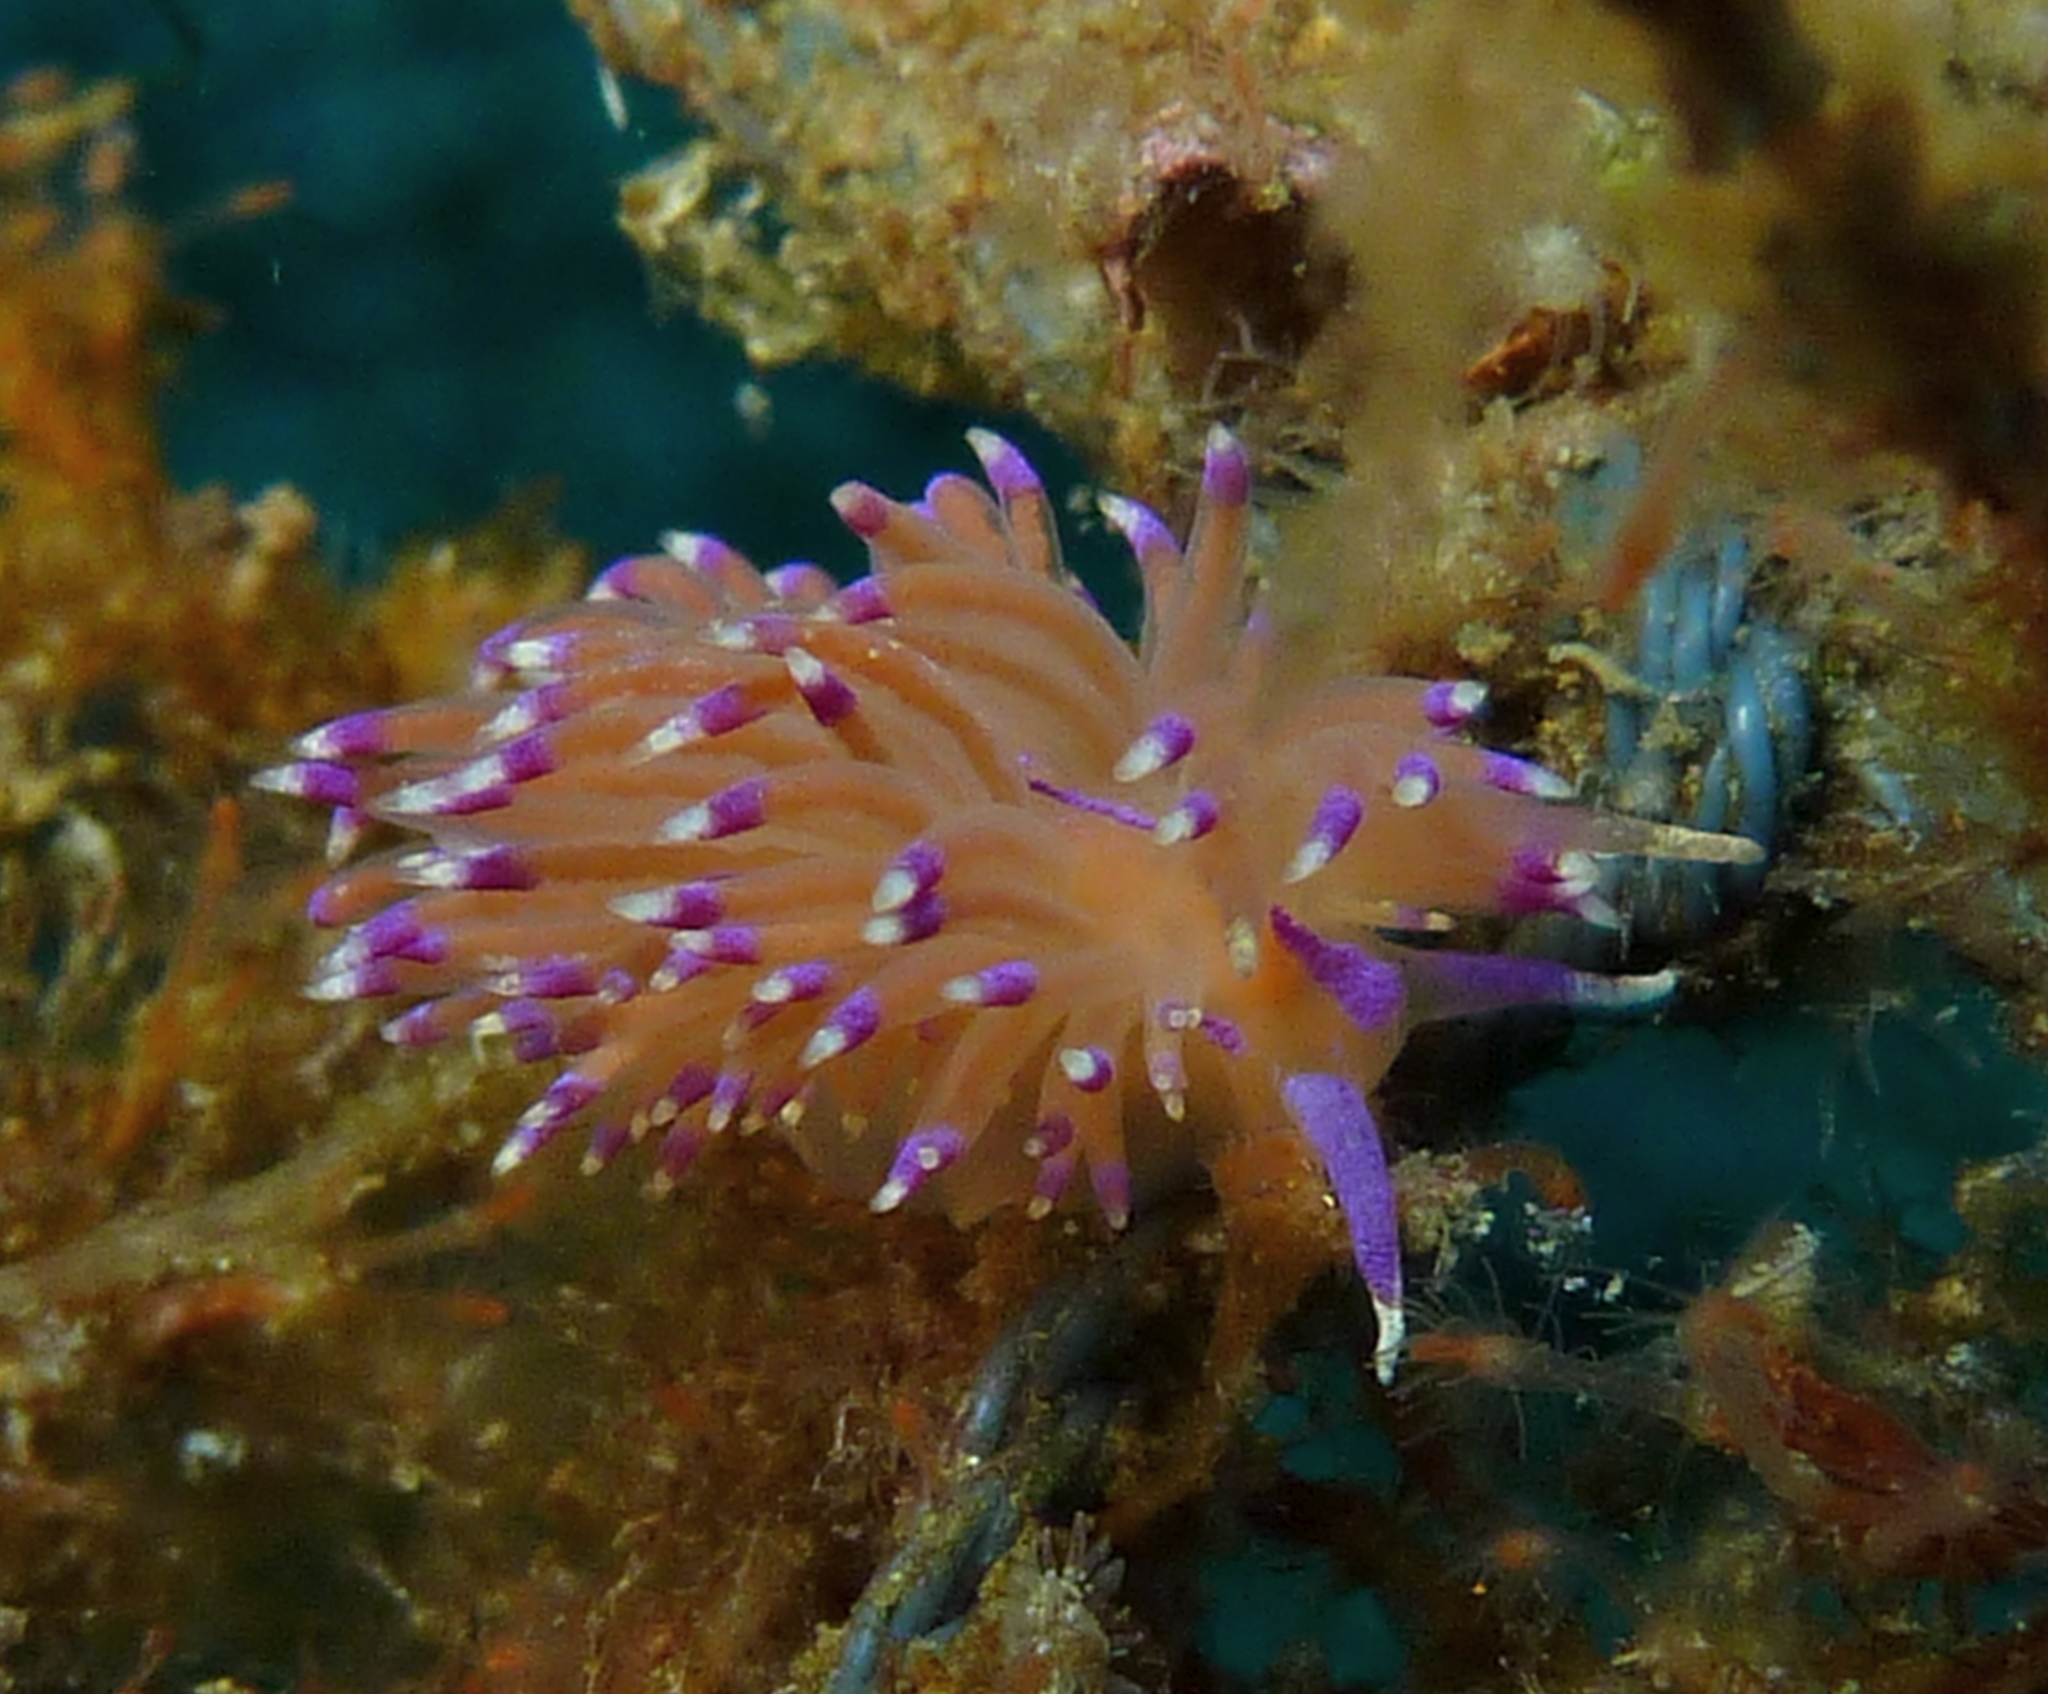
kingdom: Animalia
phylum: Mollusca
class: Gastropoda
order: Nudibranchia
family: Unidentiidae
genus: Unidentia
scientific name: Unidentia aliciae
